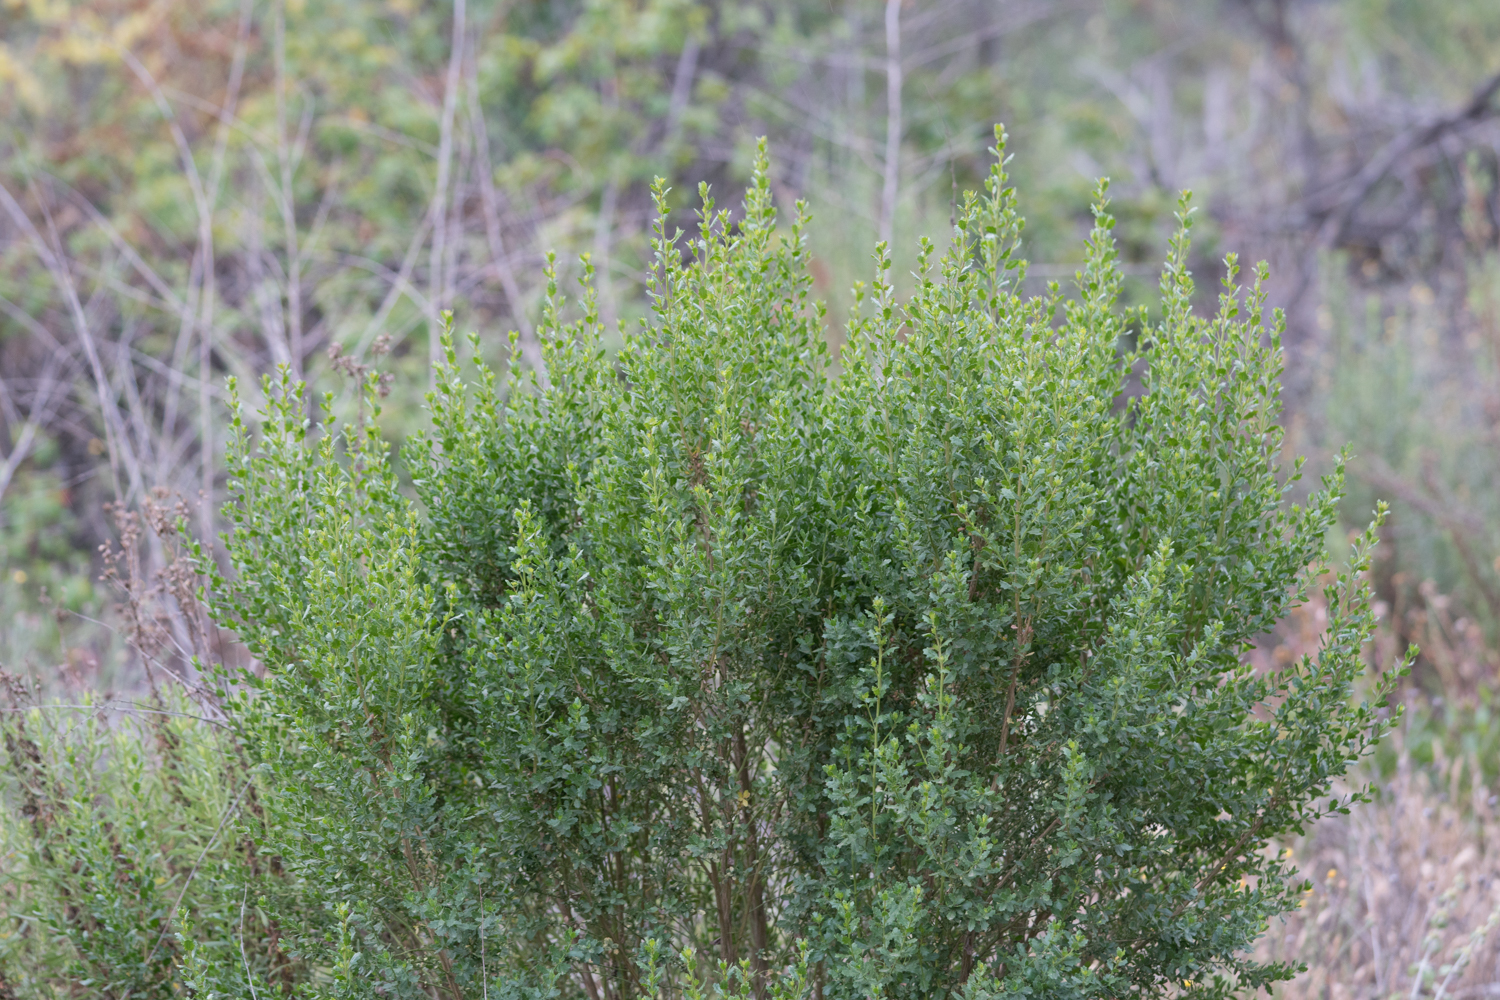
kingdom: Plantae
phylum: Tracheophyta
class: Magnoliopsida
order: Asterales
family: Asteraceae
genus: Baccharis
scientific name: Baccharis pilularis
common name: Coyotebrush
